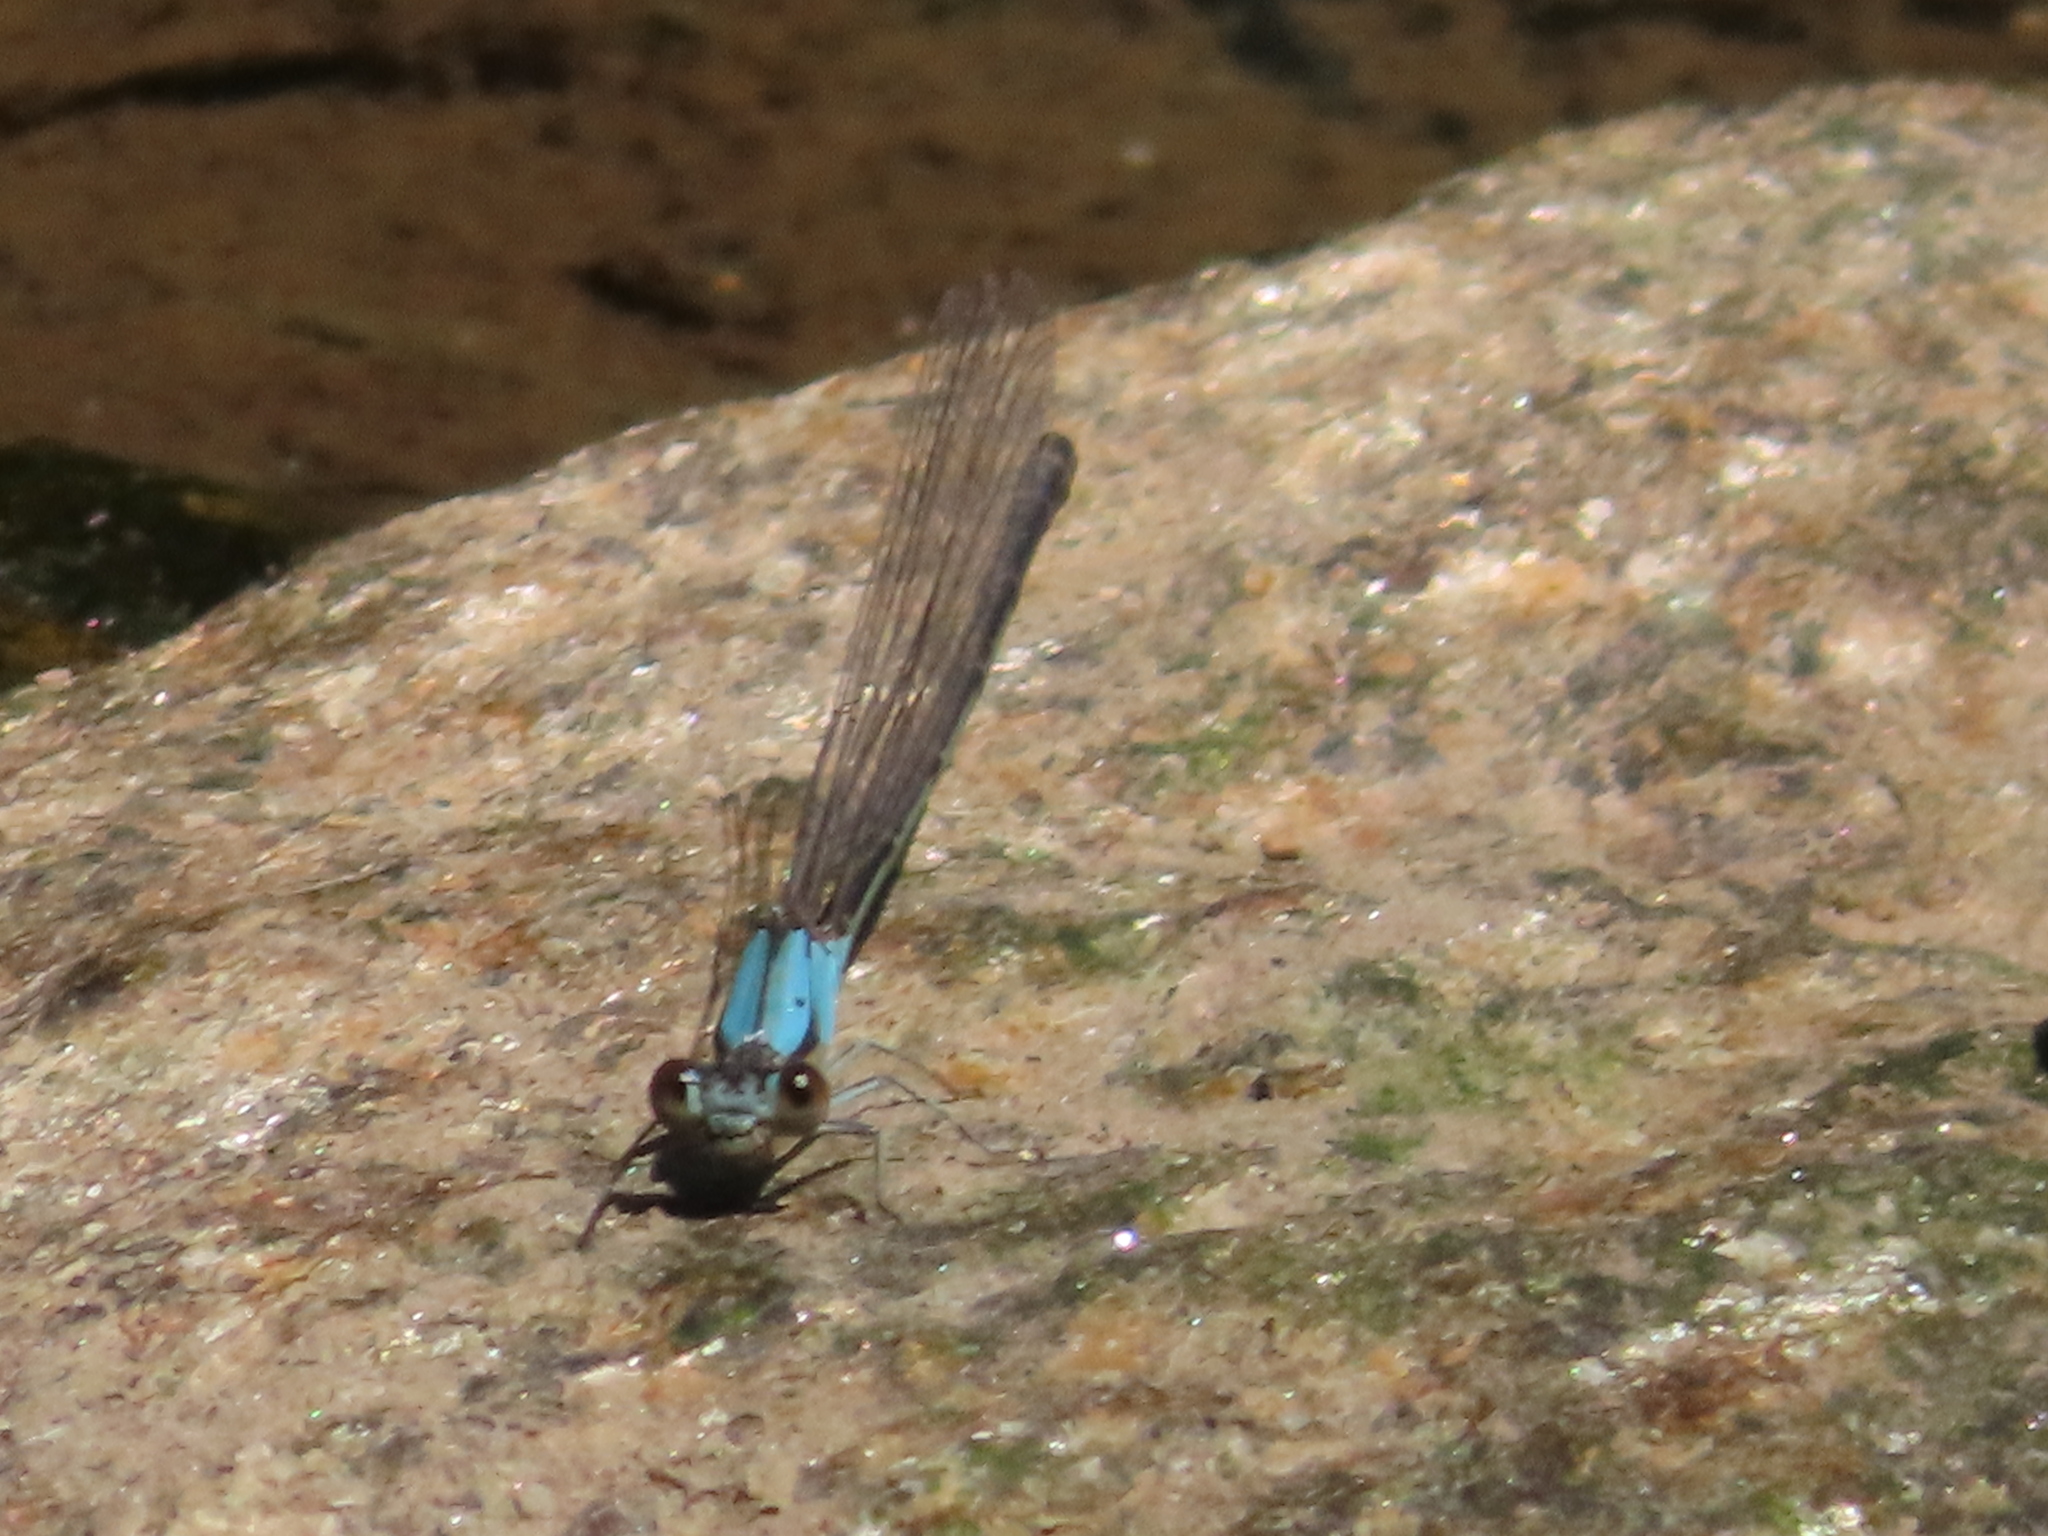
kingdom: Animalia
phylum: Arthropoda
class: Insecta
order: Odonata
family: Coenagrionidae
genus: Argia
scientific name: Argia moesta
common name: Powdered dancer
